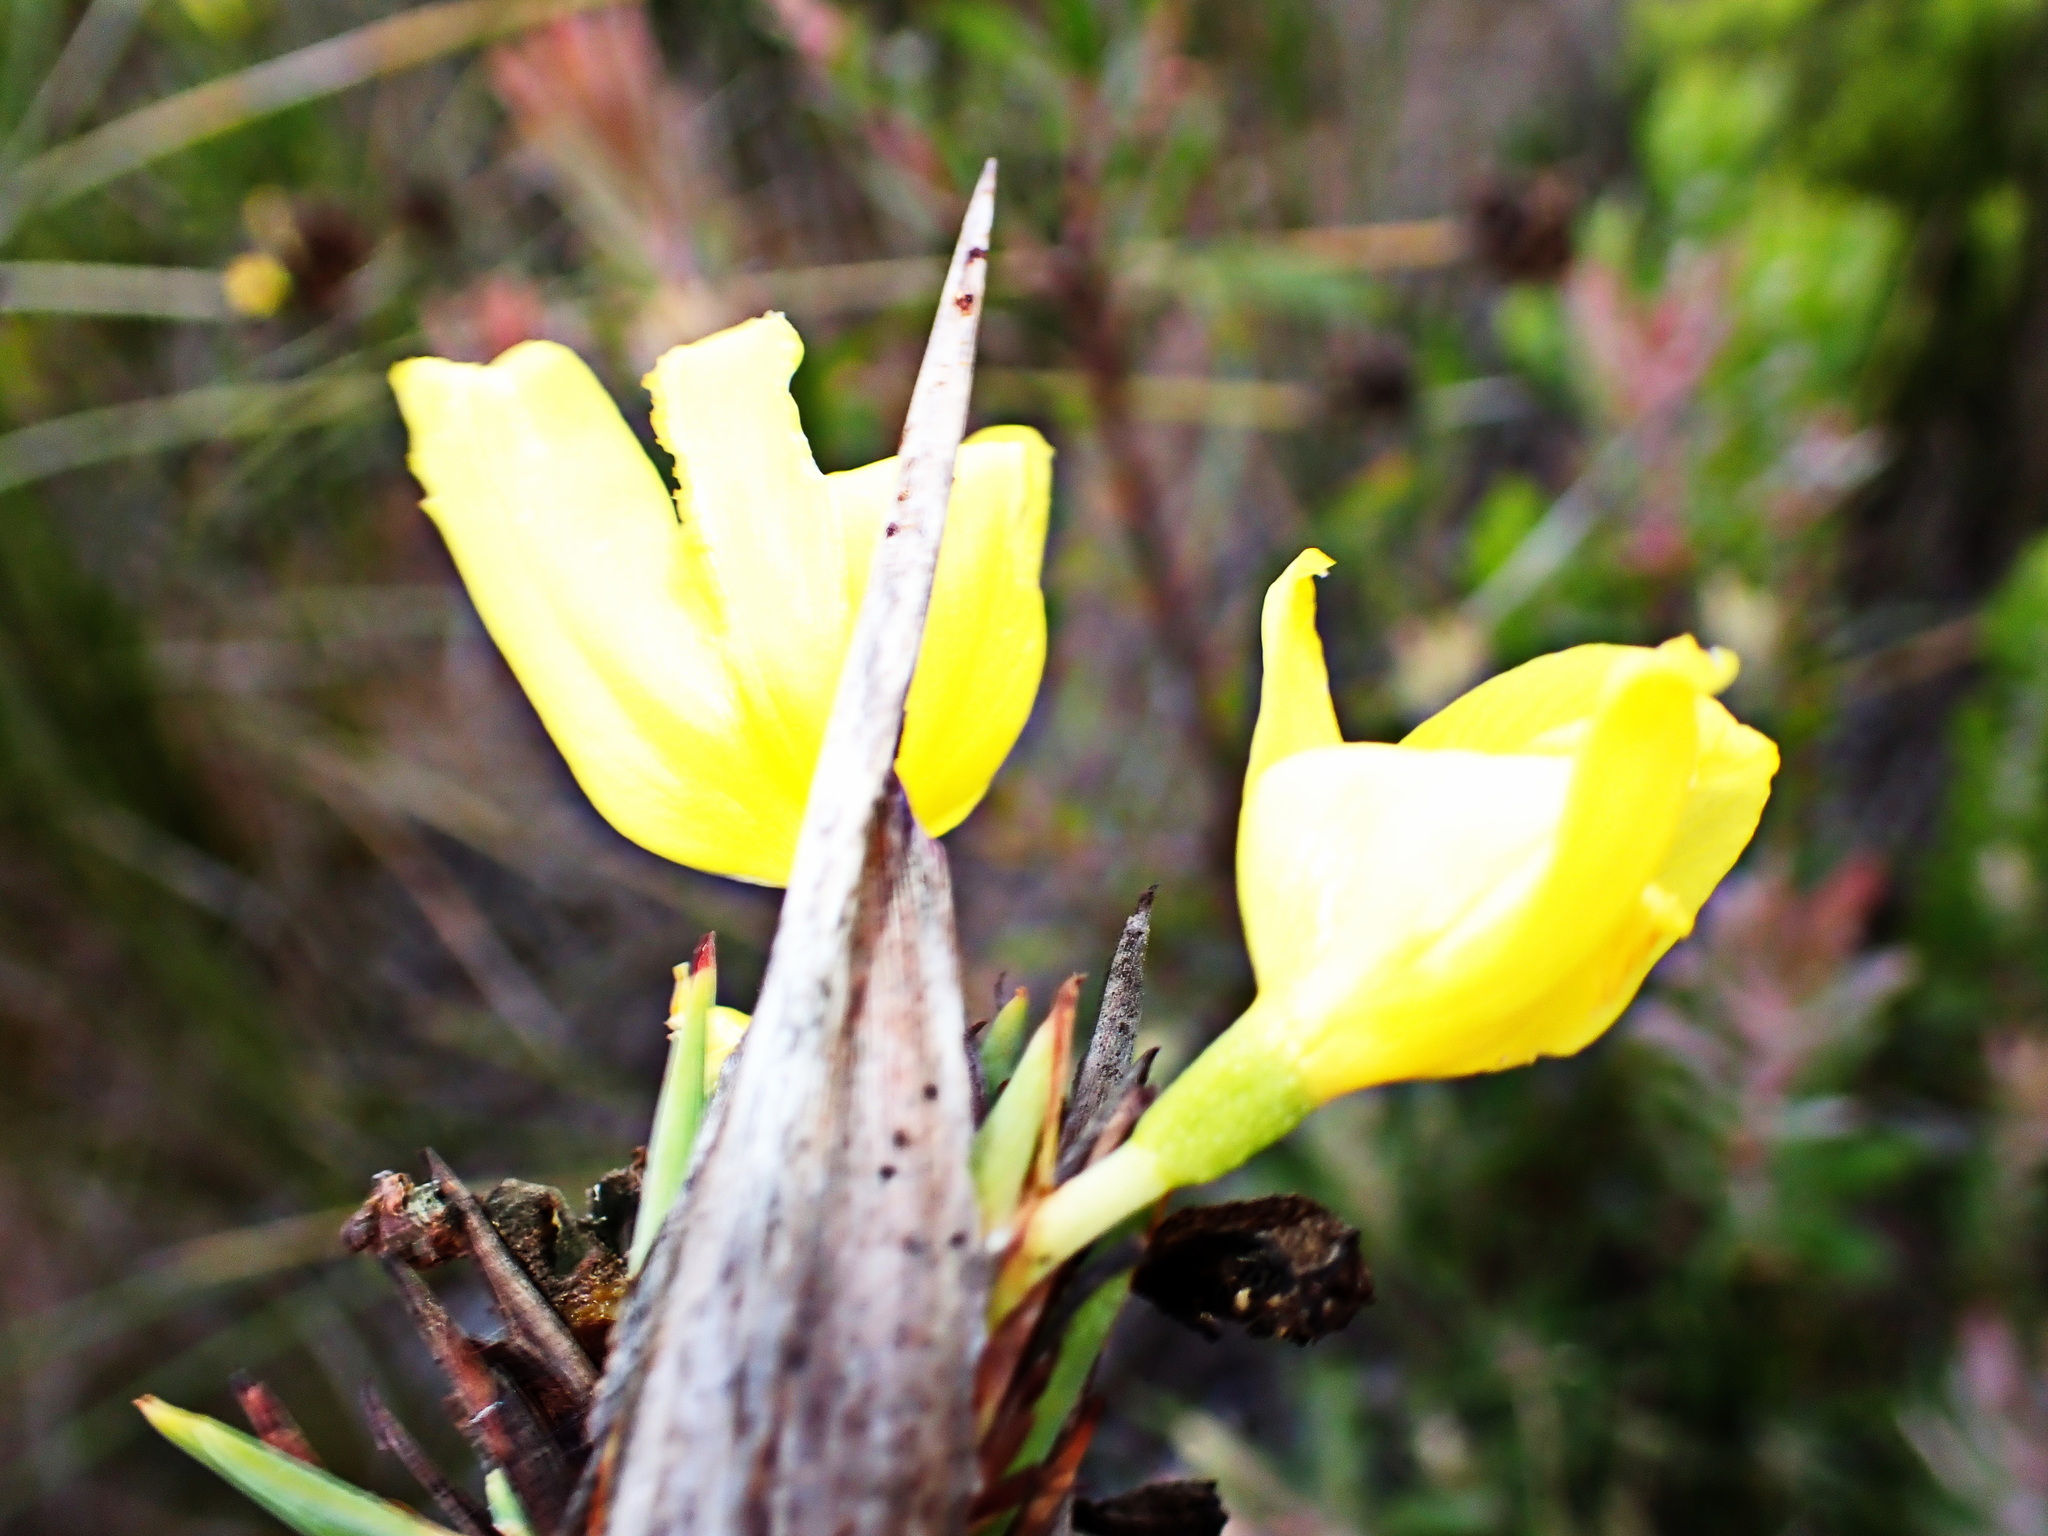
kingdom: Plantae
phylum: Tracheophyta
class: Liliopsida
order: Asparagales
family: Iridaceae
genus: Bobartia
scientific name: Bobartia macrospatha
